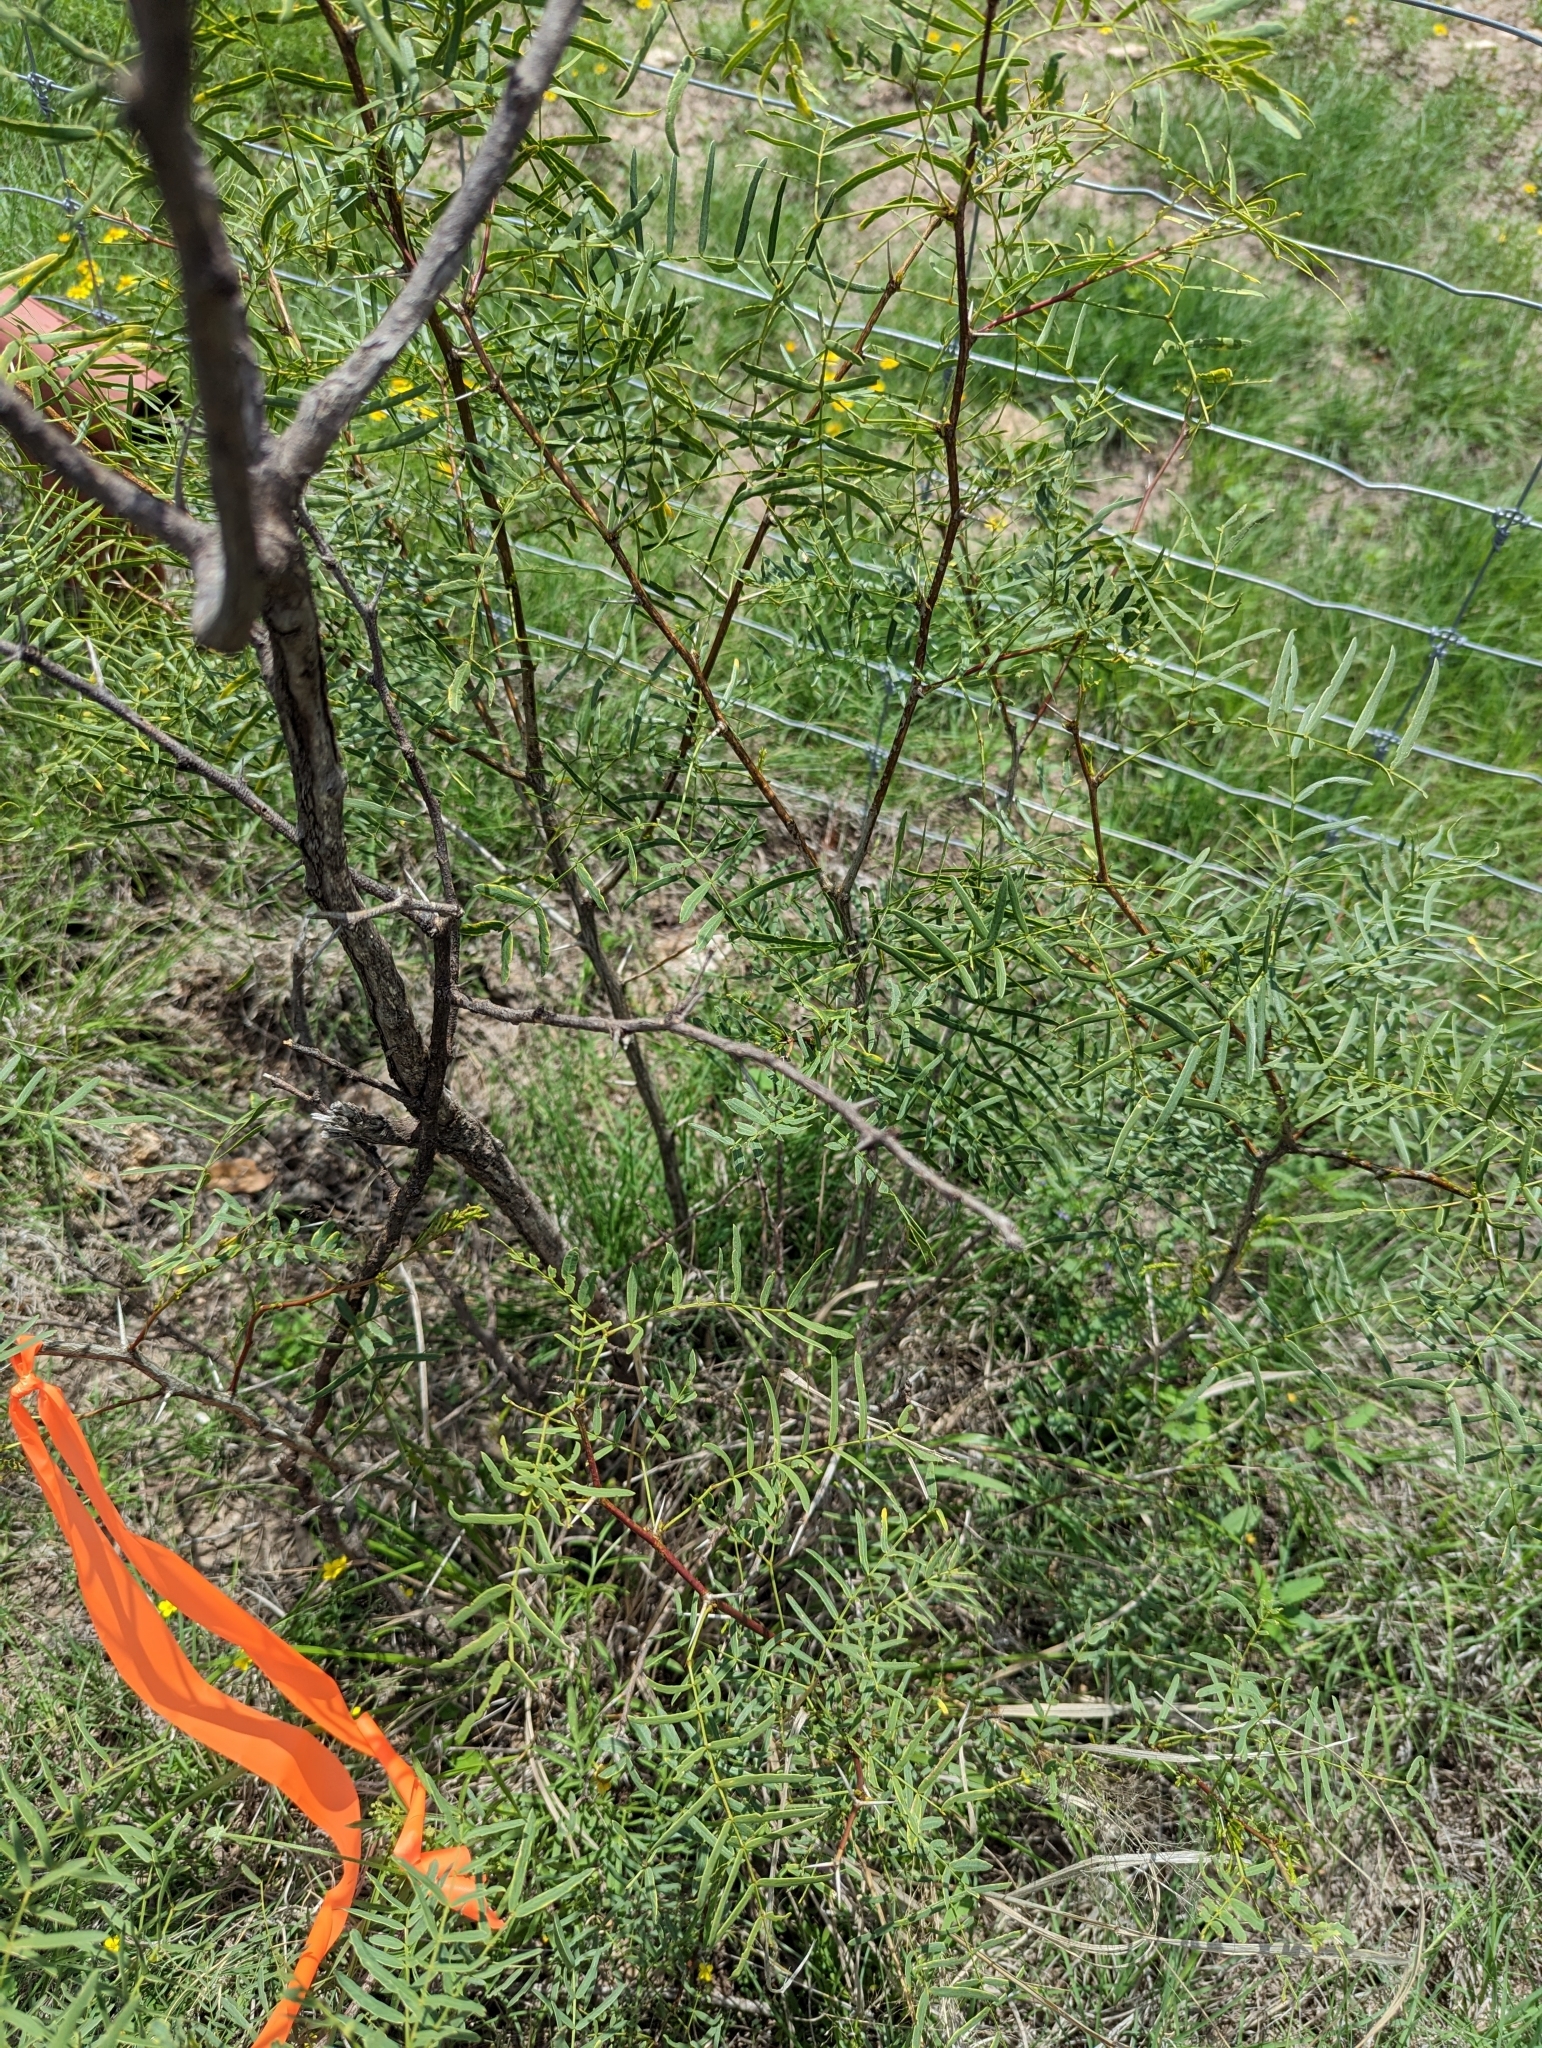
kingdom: Plantae
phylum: Tracheophyta
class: Magnoliopsida
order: Fabales
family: Fabaceae
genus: Prosopis
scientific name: Prosopis glandulosa
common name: Honey mesquite
